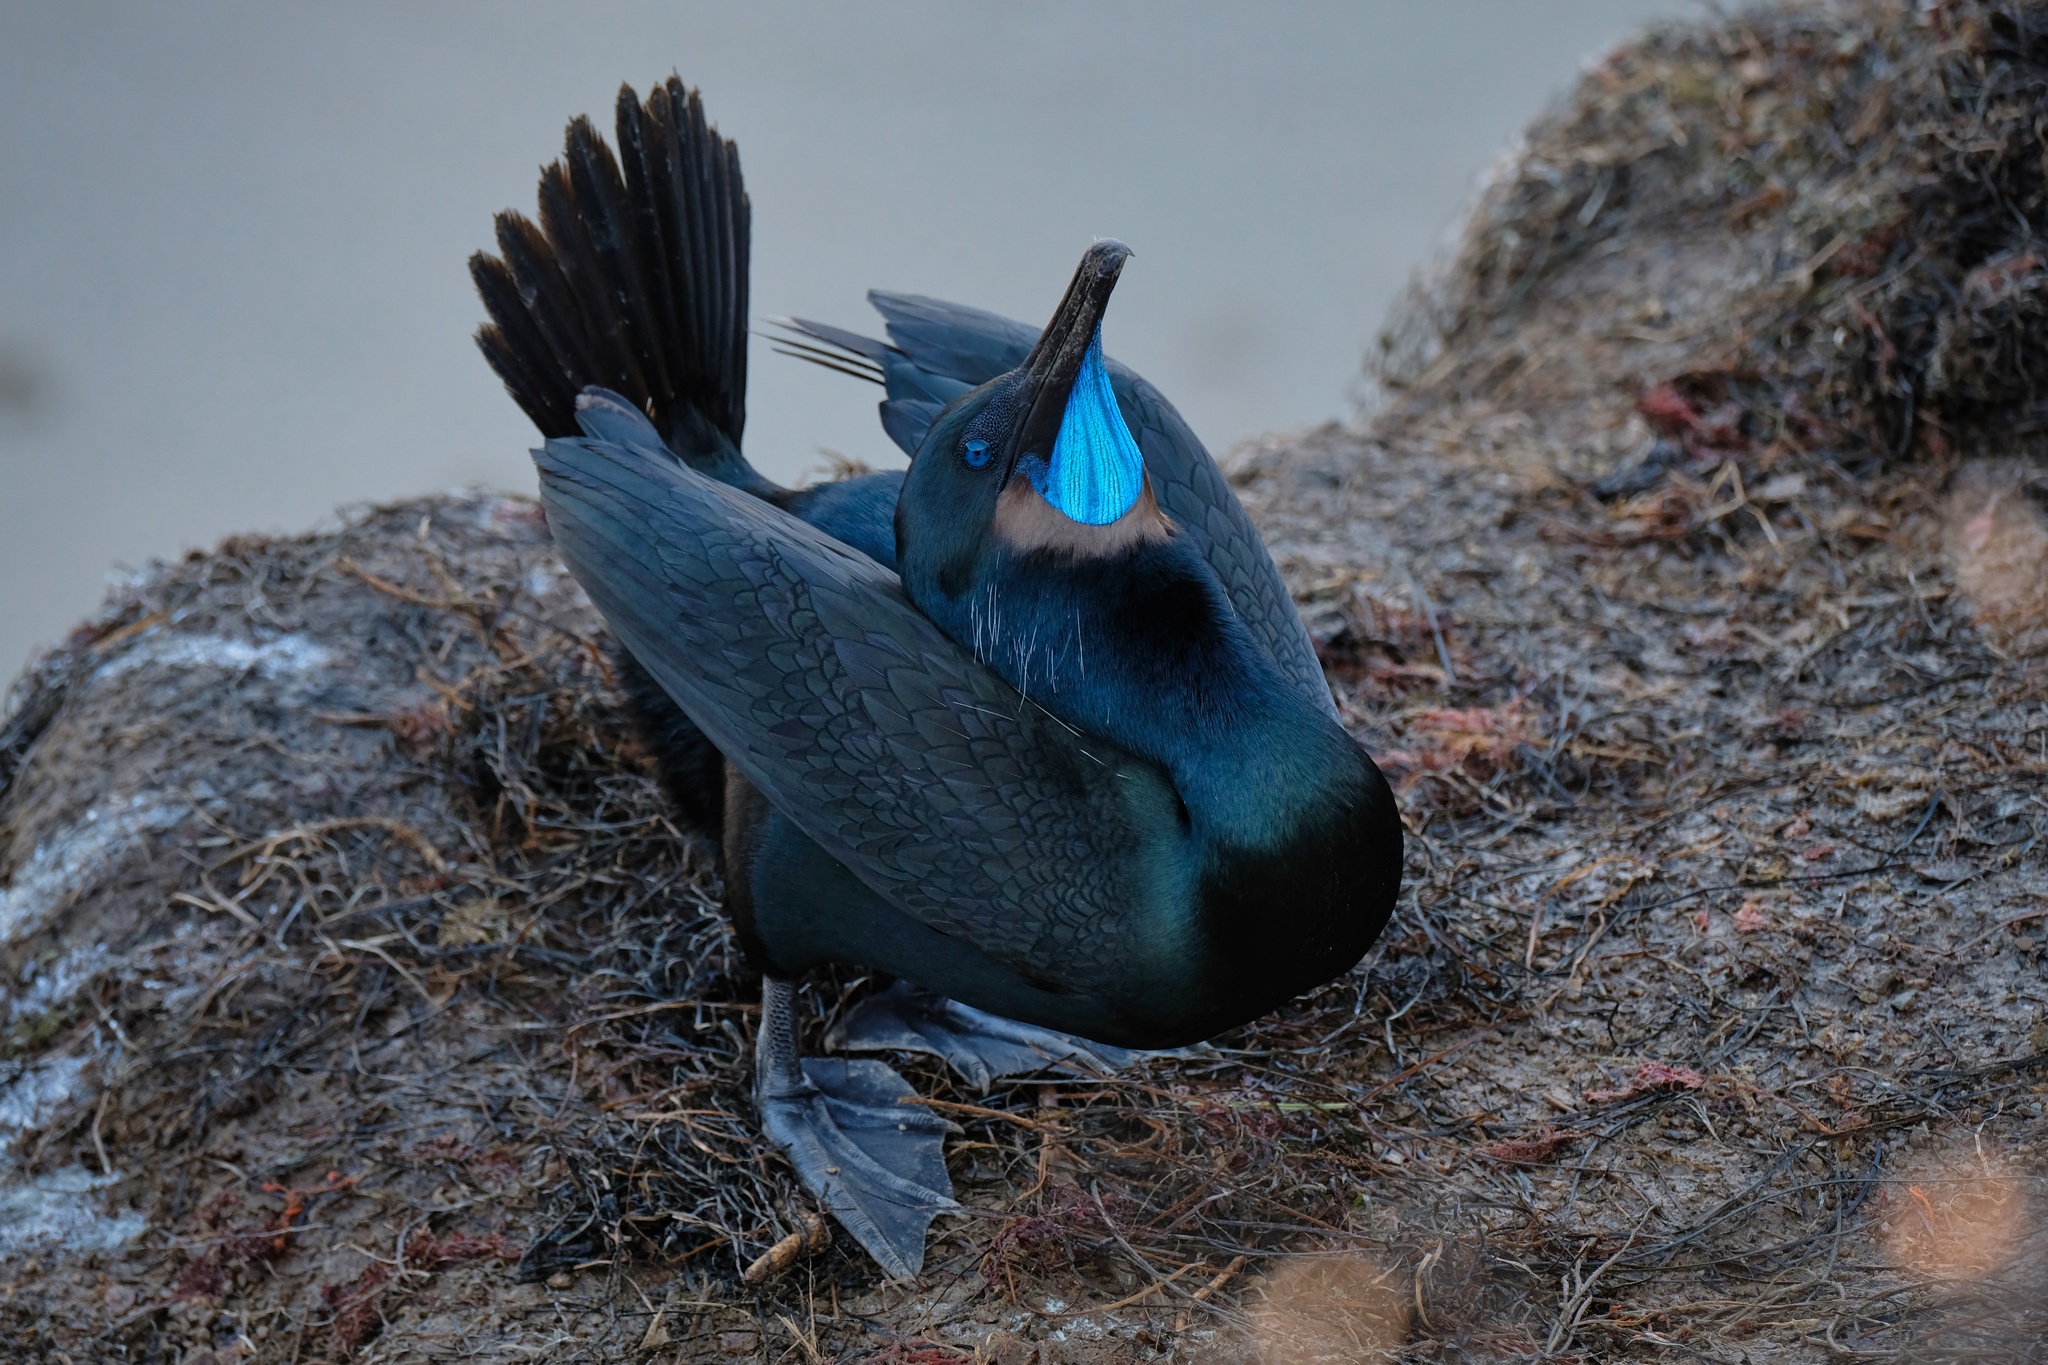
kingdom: Animalia
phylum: Chordata
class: Aves
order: Suliformes
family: Phalacrocoracidae
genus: Urile
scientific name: Urile penicillatus
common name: Brandt's cormorant
